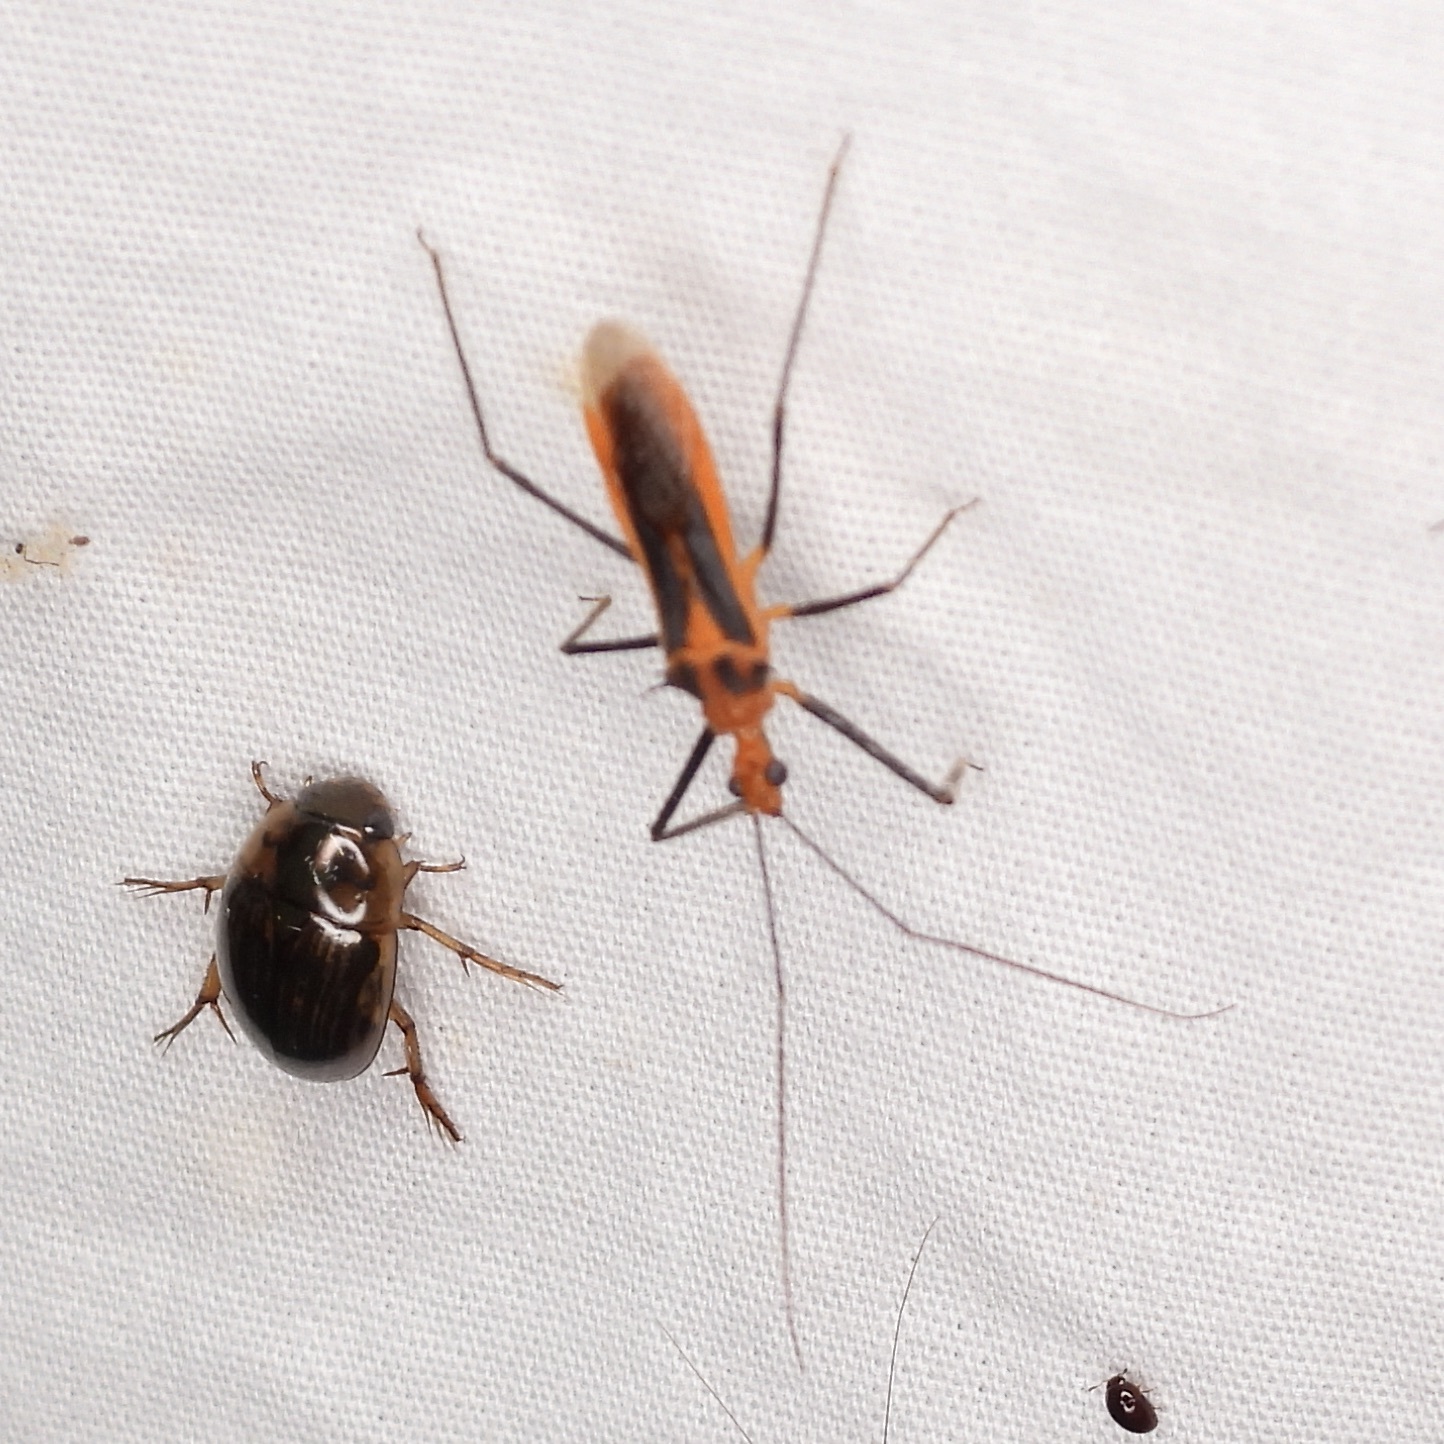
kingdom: Animalia
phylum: Arthropoda
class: Insecta
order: Hemiptera
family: Reduviidae
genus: Repipta
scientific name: Repipta taurus
